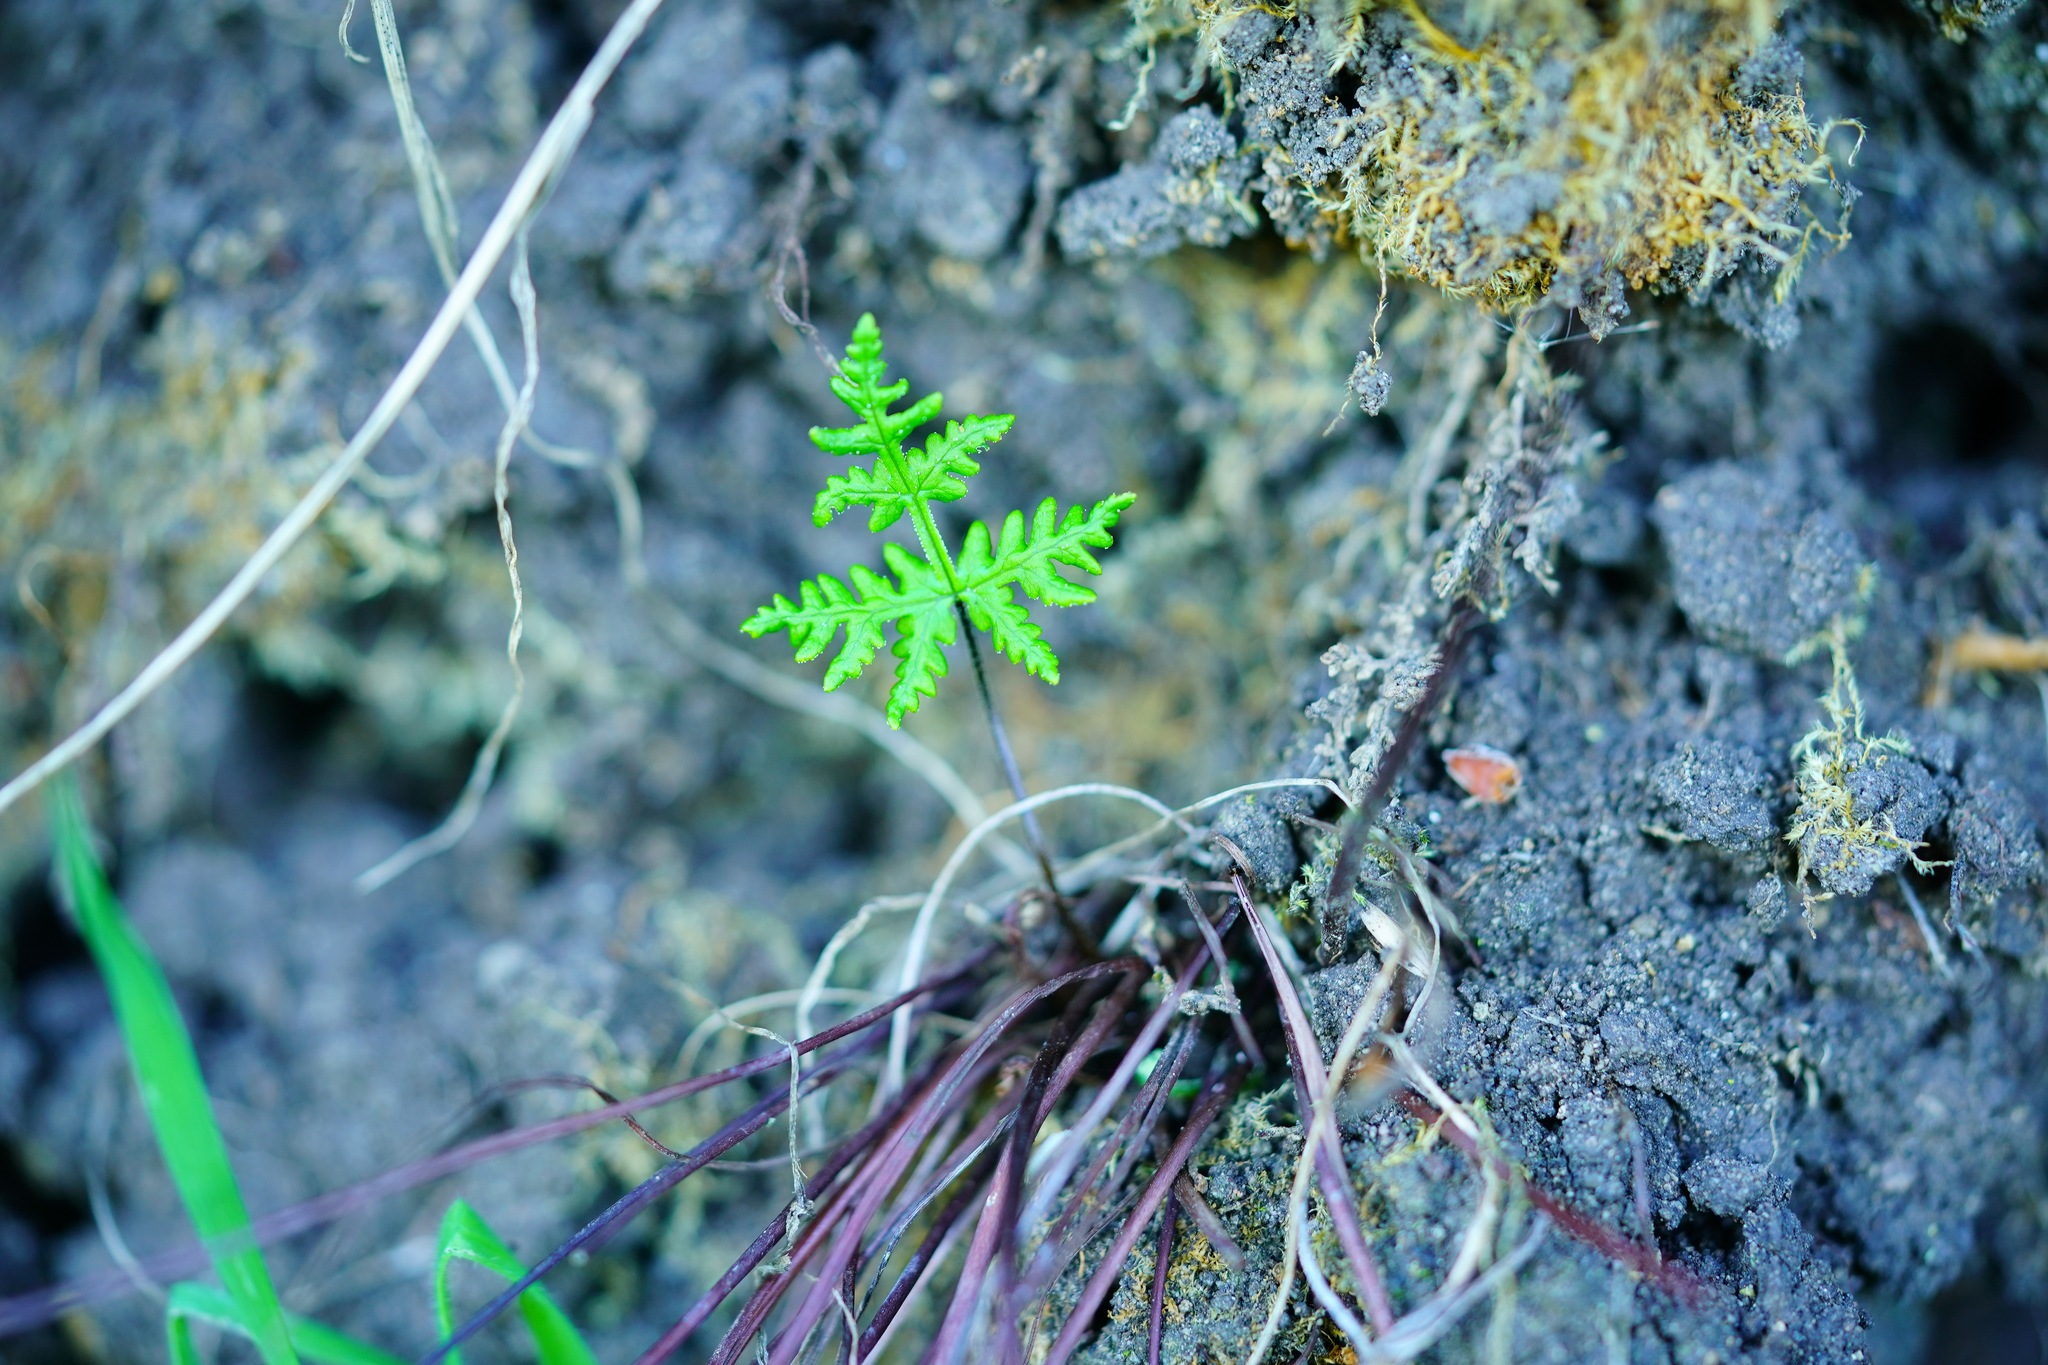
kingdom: Plantae
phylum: Tracheophyta
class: Polypodiopsida
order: Polypodiales
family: Pteridaceae
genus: Pentagramma
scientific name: Pentagramma triangularis
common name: Gold fern
